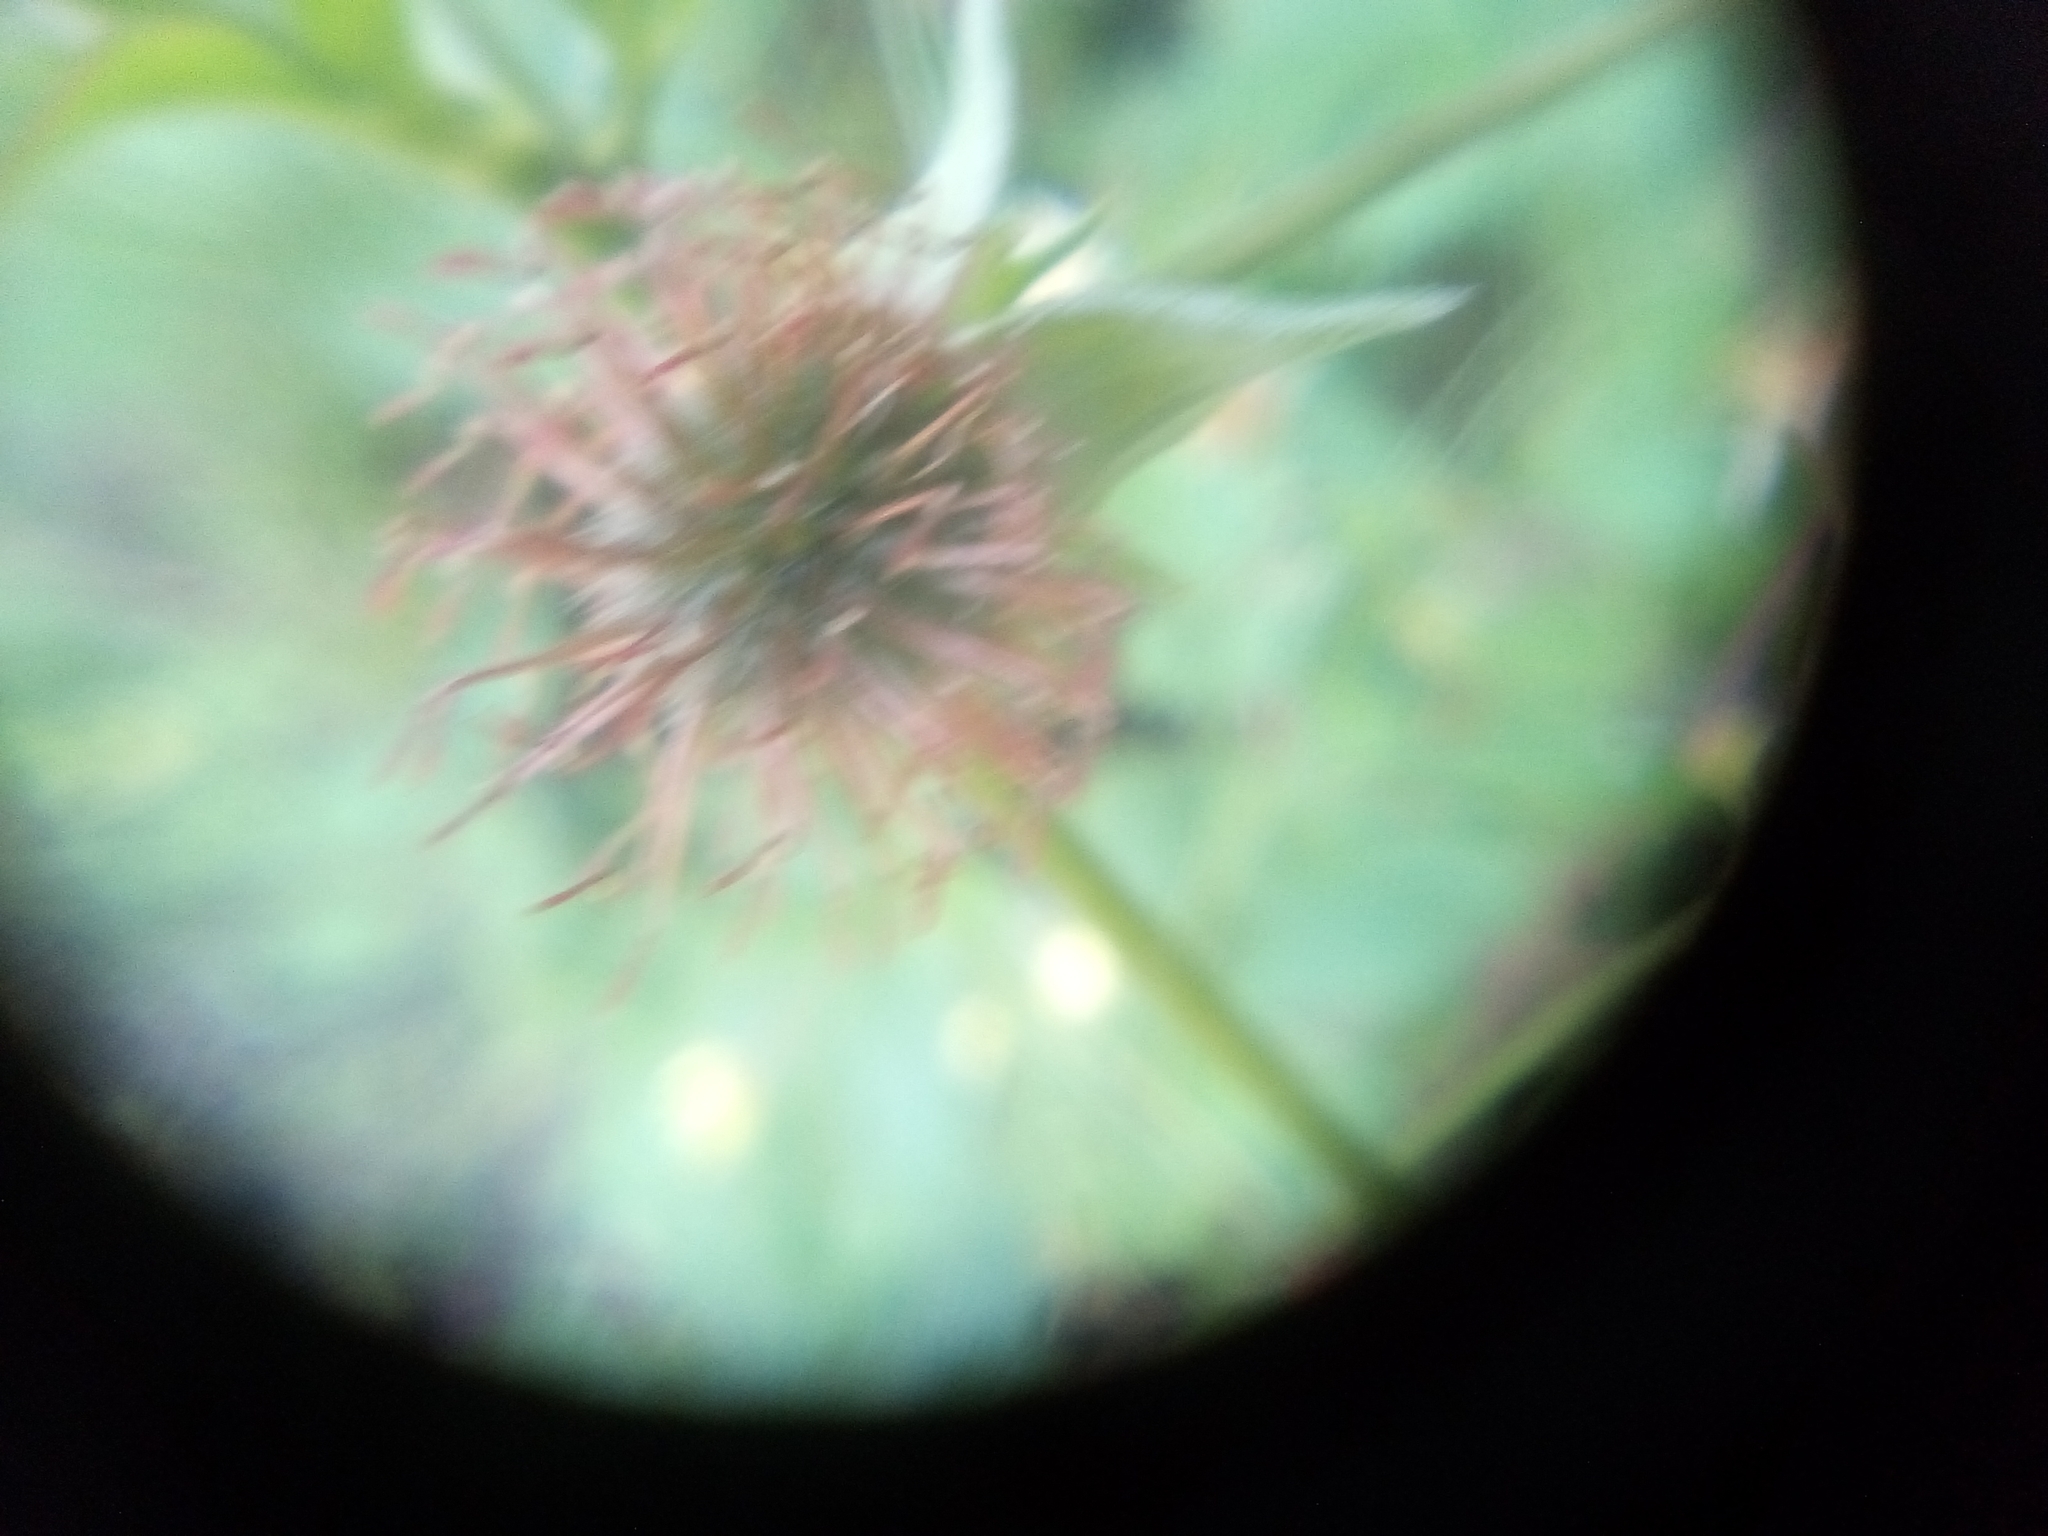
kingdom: Plantae
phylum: Tracheophyta
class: Magnoliopsida
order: Rosales
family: Rosaceae
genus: Geum
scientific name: Geum urbanum
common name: Wood avens
